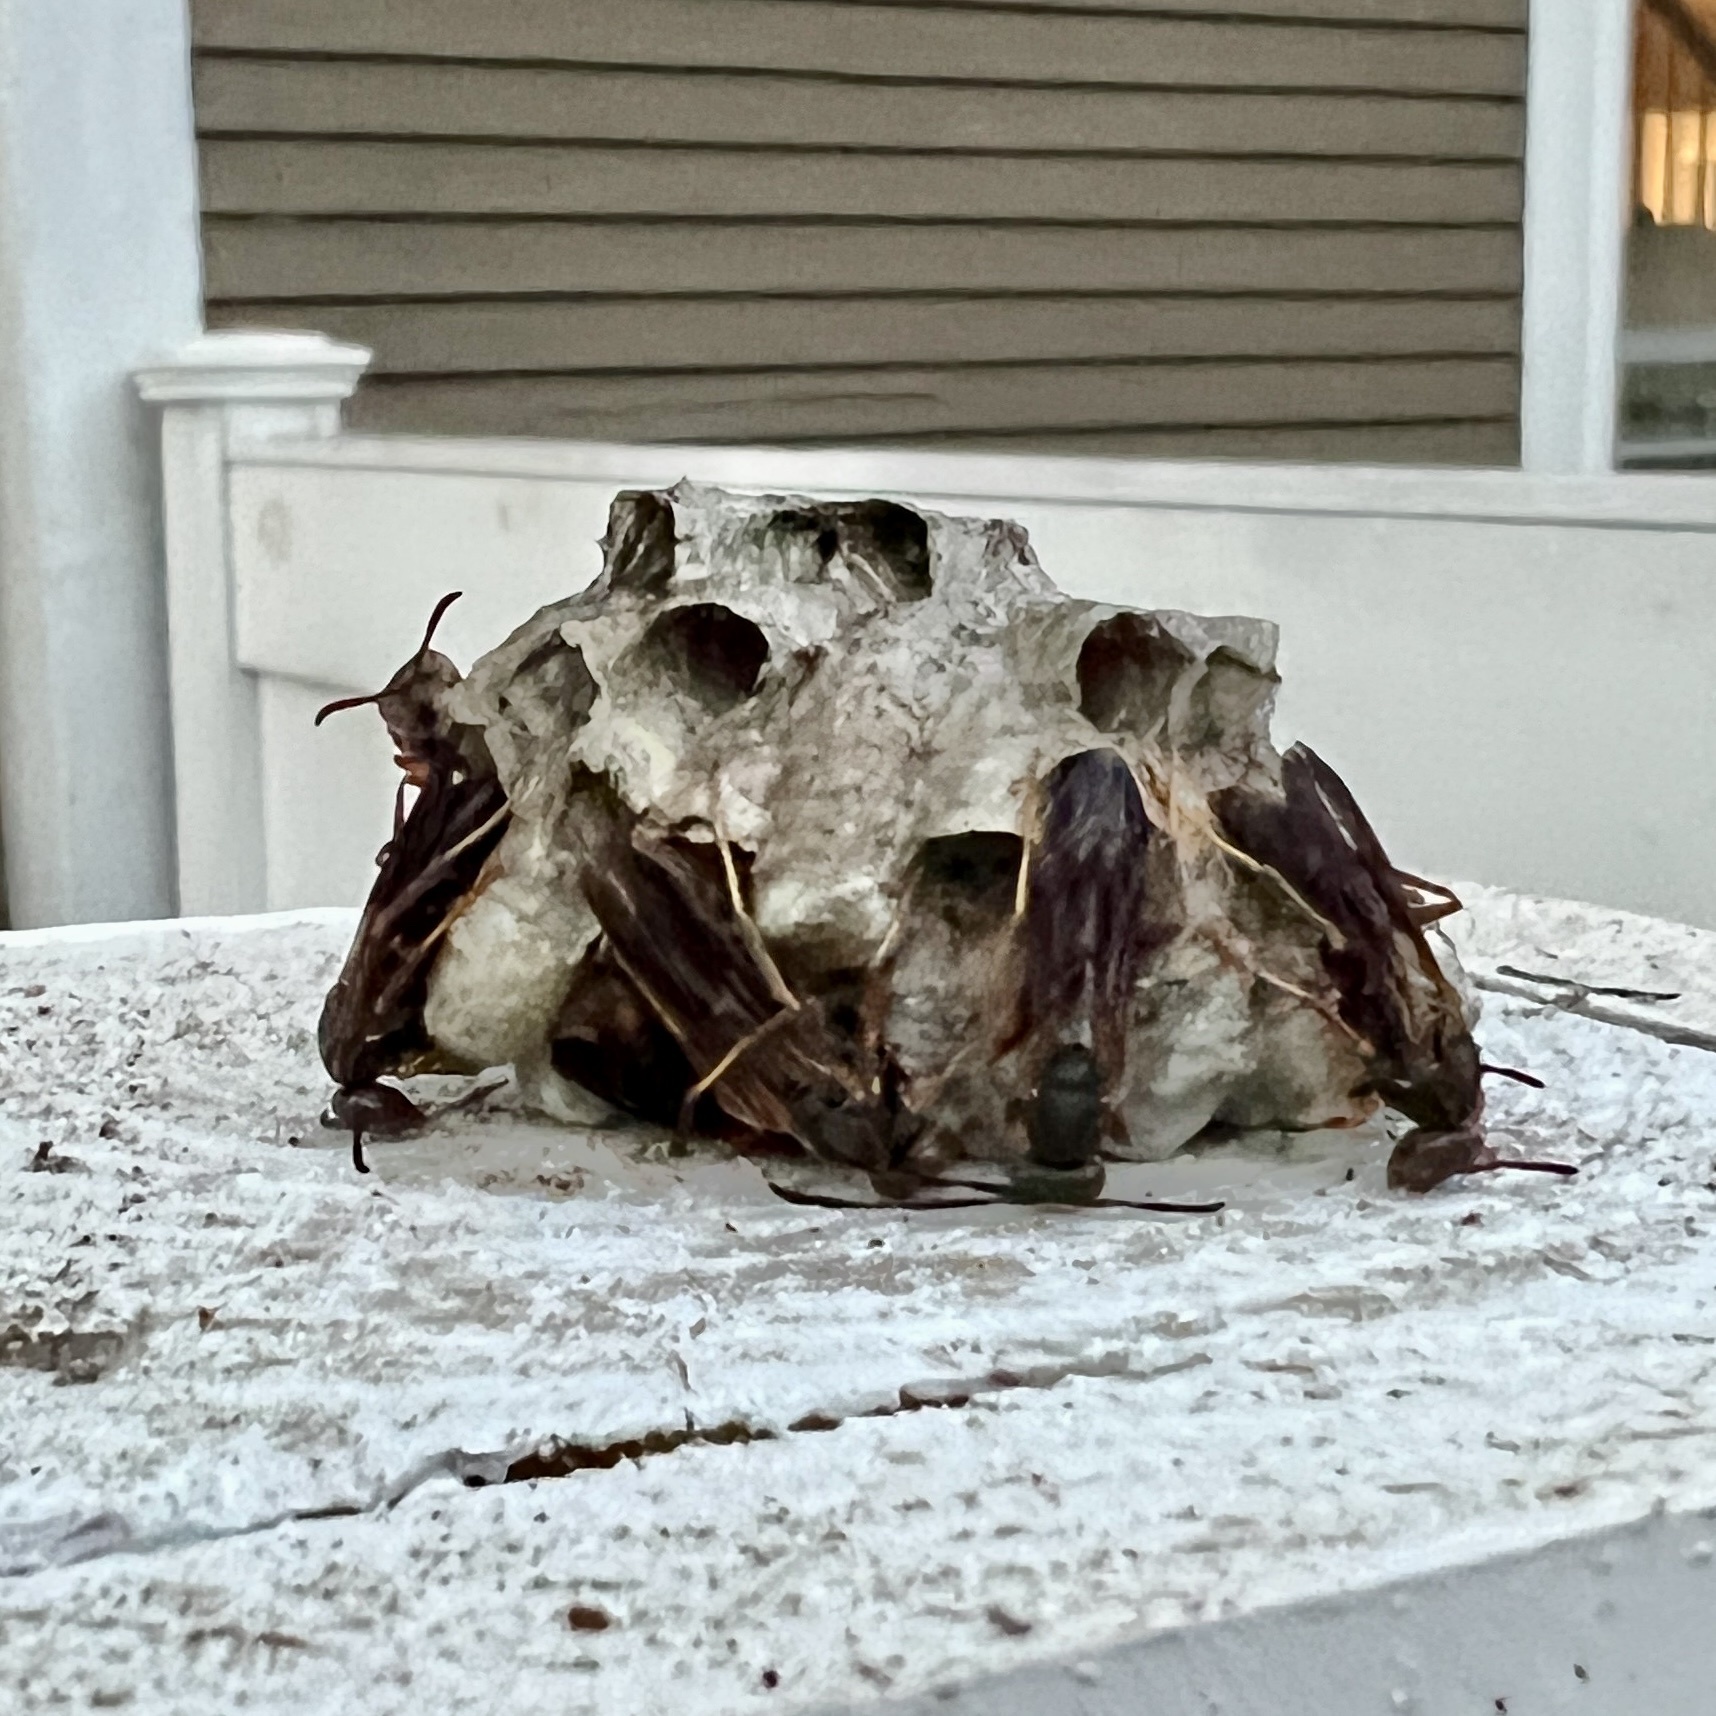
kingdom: Animalia
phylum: Arthropoda
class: Insecta
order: Hymenoptera
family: Eumenidae
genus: Polistes
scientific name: Polistes fuscatus
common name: Dark paper wasp
